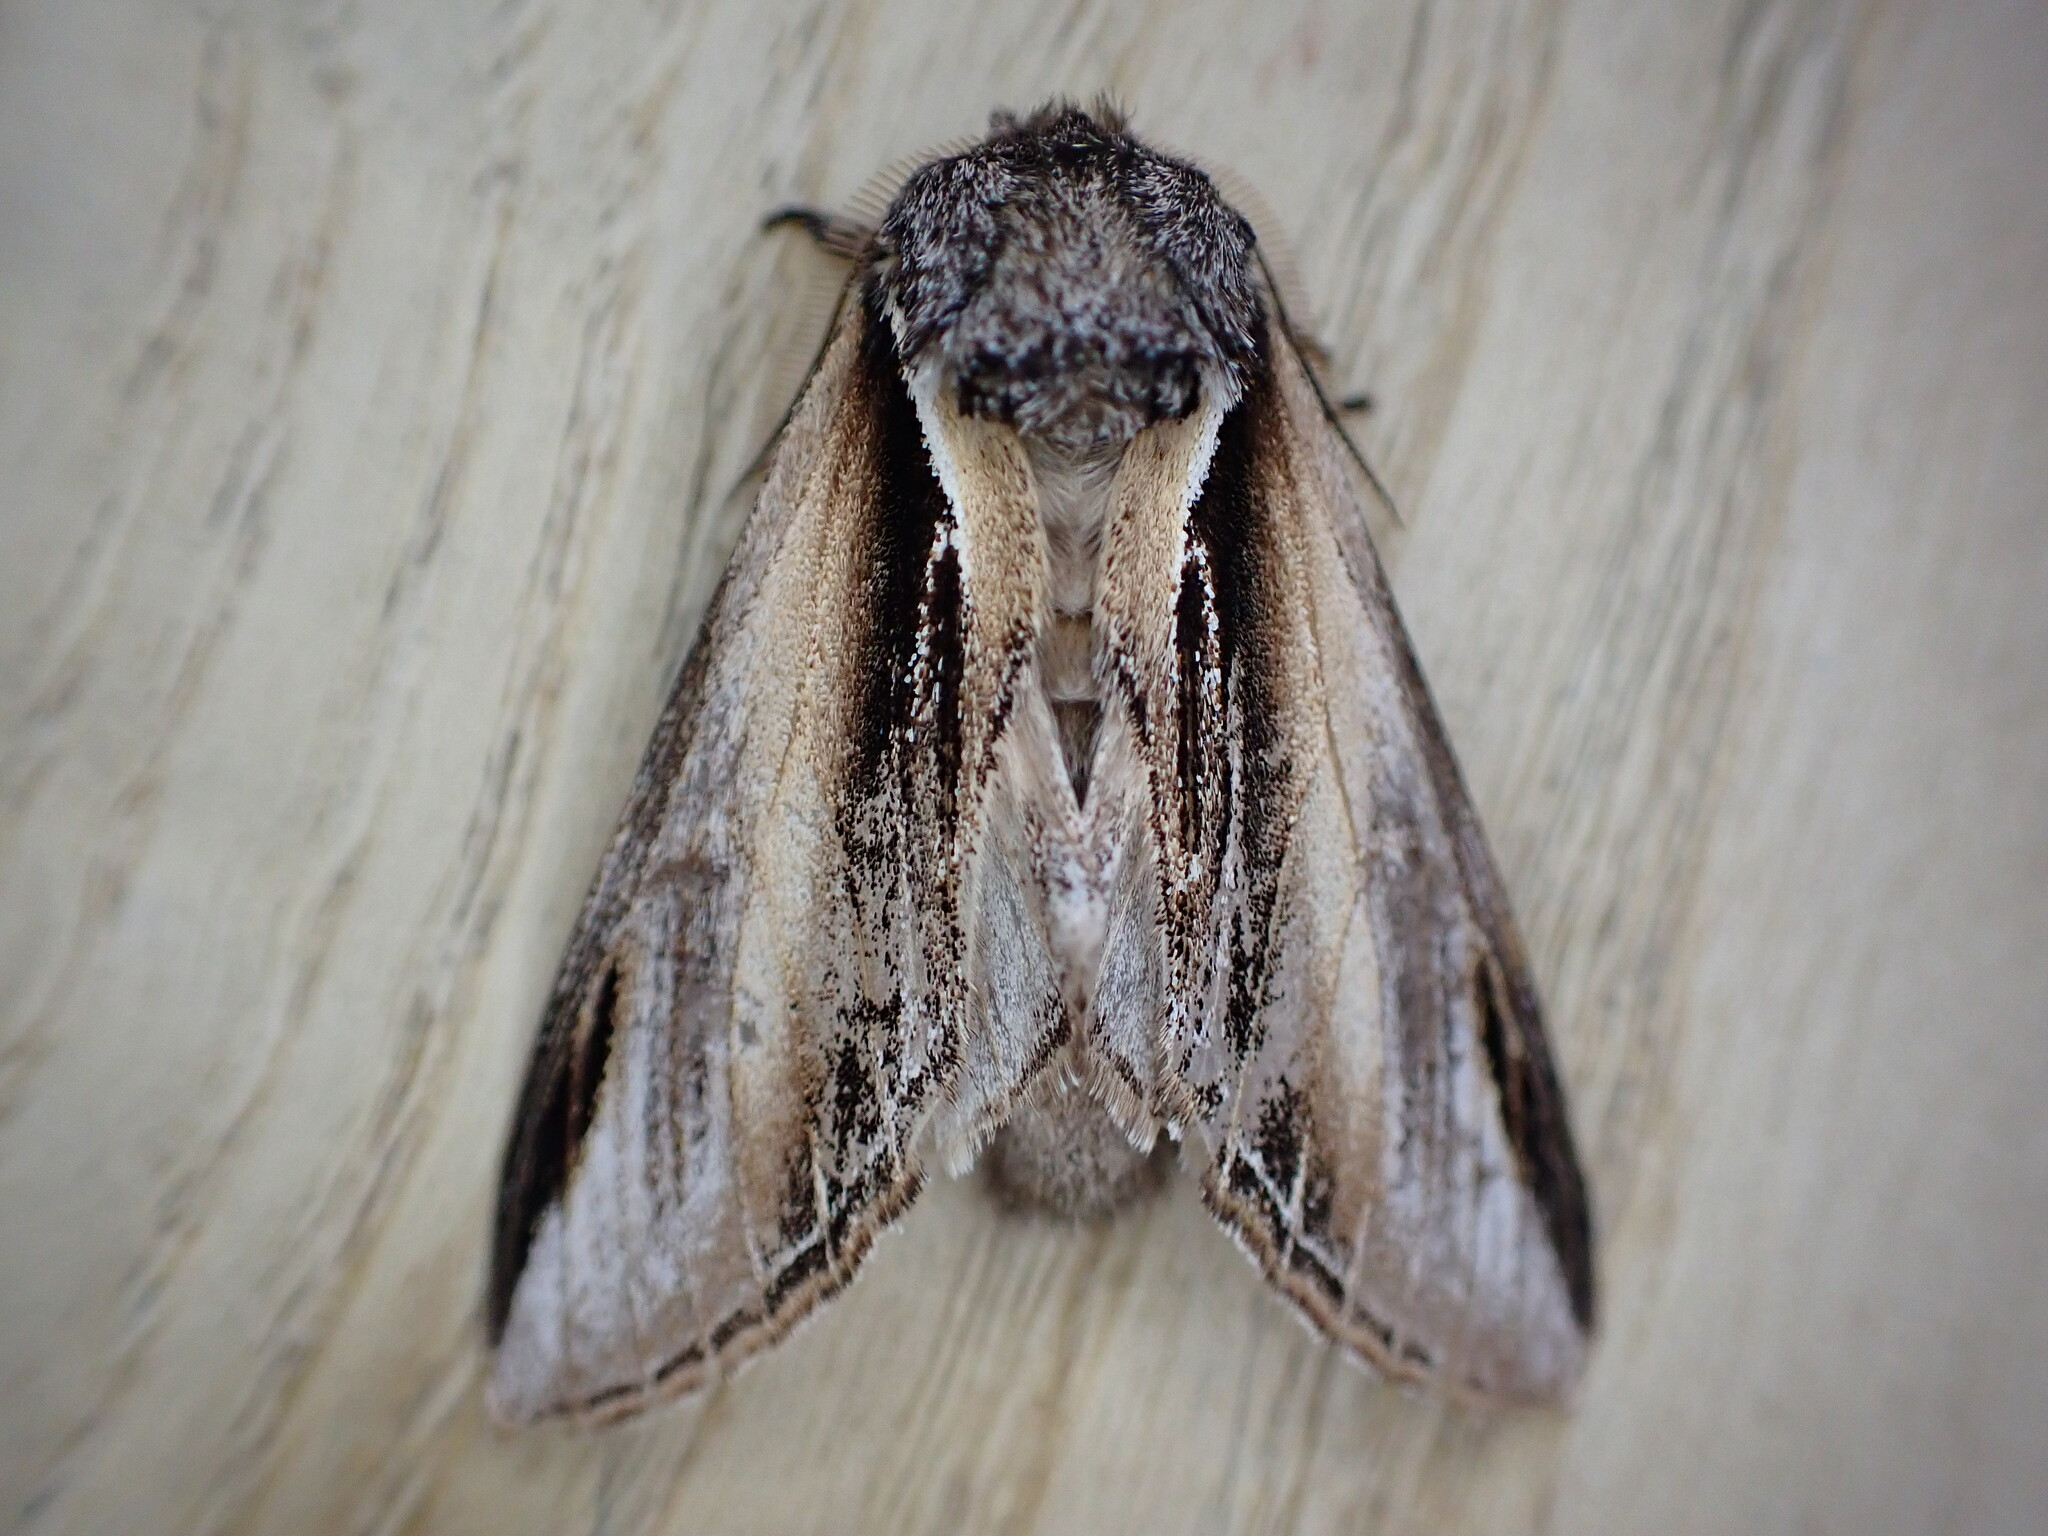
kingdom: Animalia
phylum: Arthropoda
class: Insecta
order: Lepidoptera
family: Notodontidae
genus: Pheosia
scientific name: Pheosia tremula
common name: Swallow prominent
